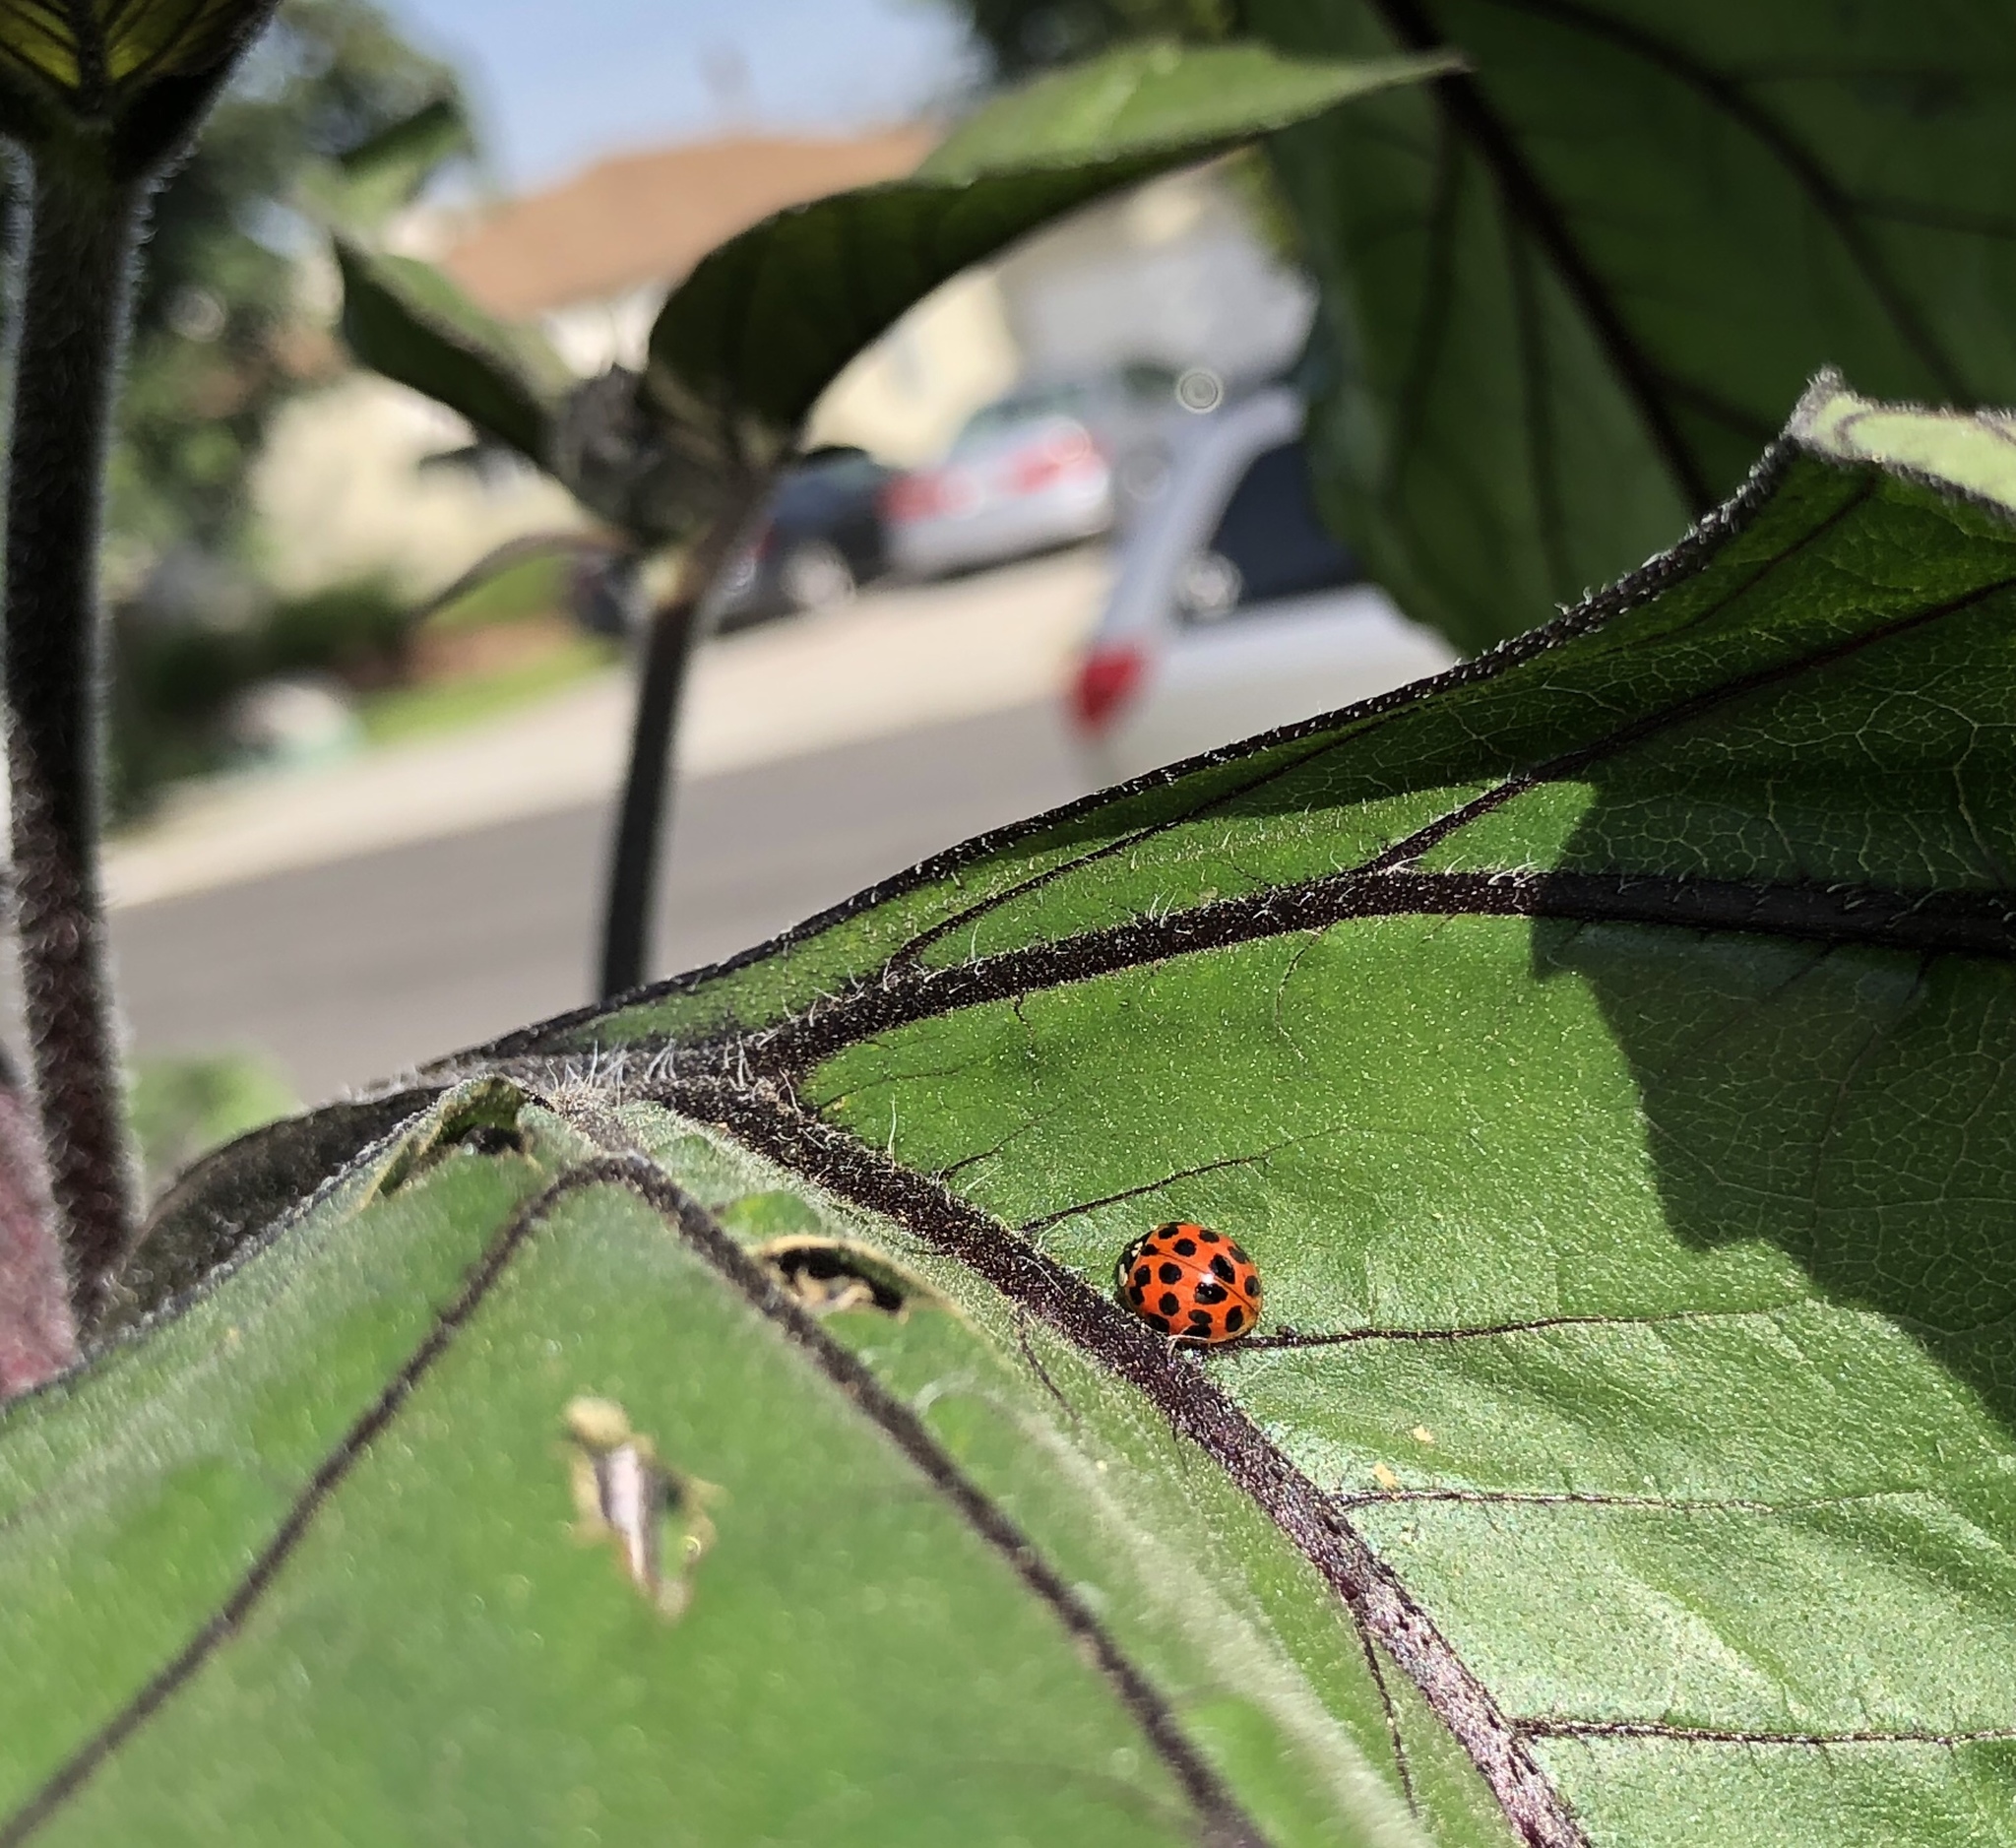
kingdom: Animalia
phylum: Arthropoda
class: Insecta
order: Coleoptera
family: Coccinellidae
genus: Harmonia
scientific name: Harmonia axyridis
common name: Harlequin ladybird
